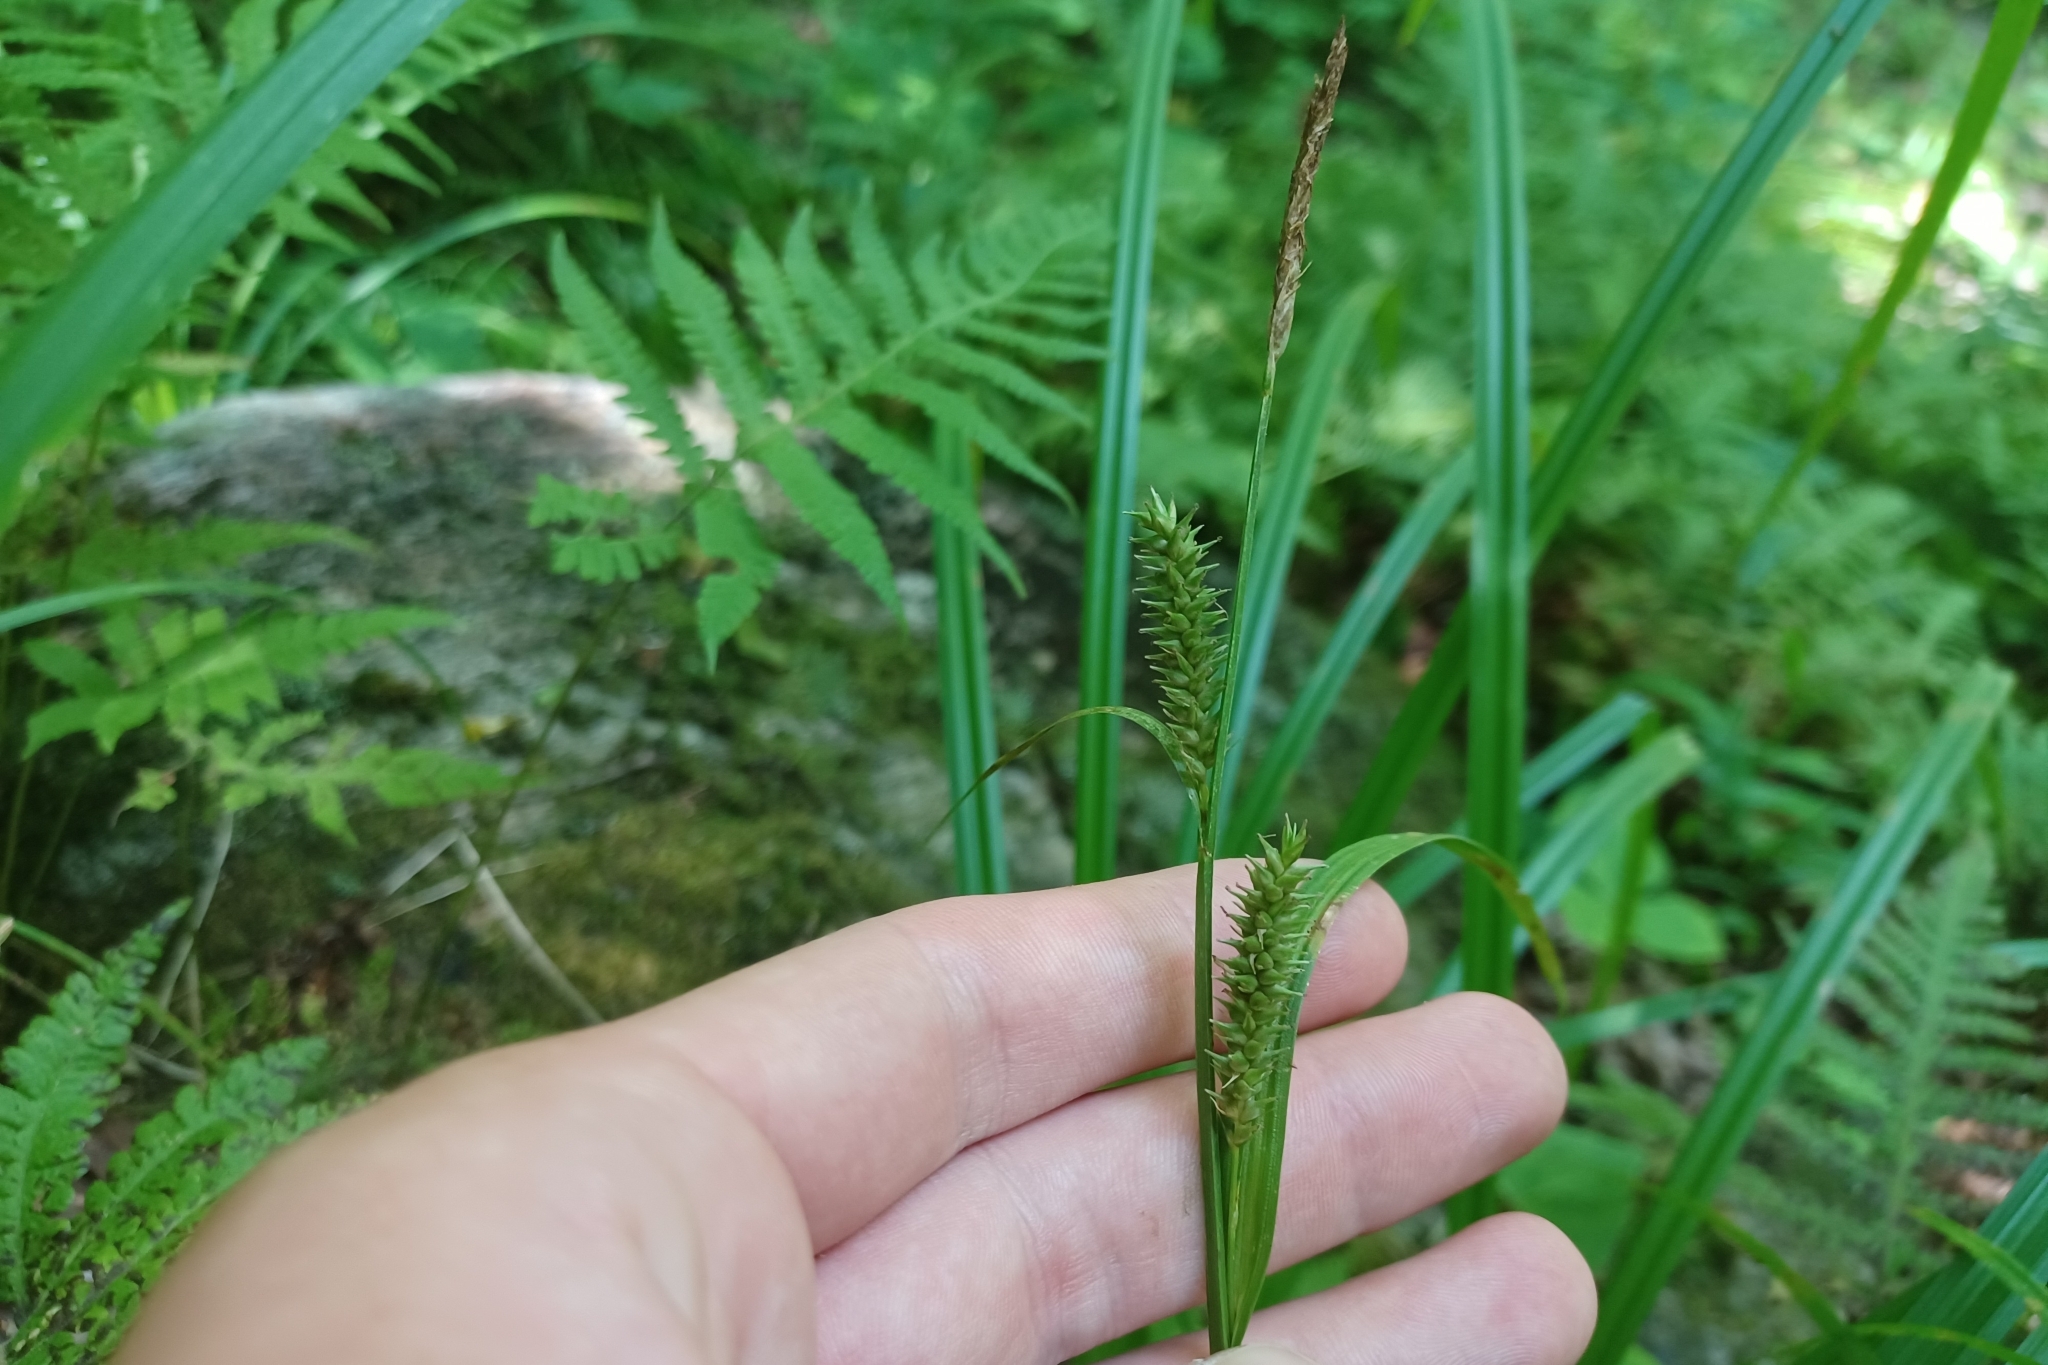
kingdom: Plantae
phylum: Tracheophyta
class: Liliopsida
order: Poales
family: Cyperaceae
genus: Carex
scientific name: Carex scabrata
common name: Eastern rough sedge
